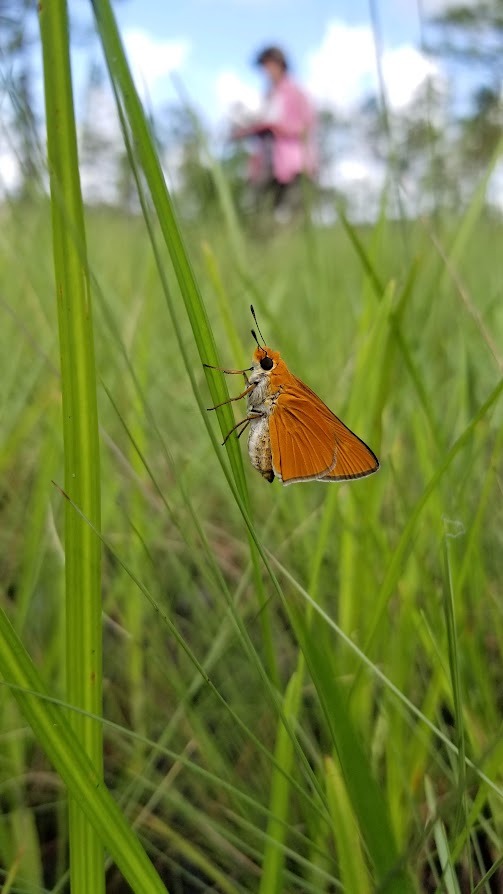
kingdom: Animalia
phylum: Arthropoda
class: Insecta
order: Lepidoptera
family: Hesperiidae
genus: Euphyes
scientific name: Euphyes arpa
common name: Palmetto skipper
